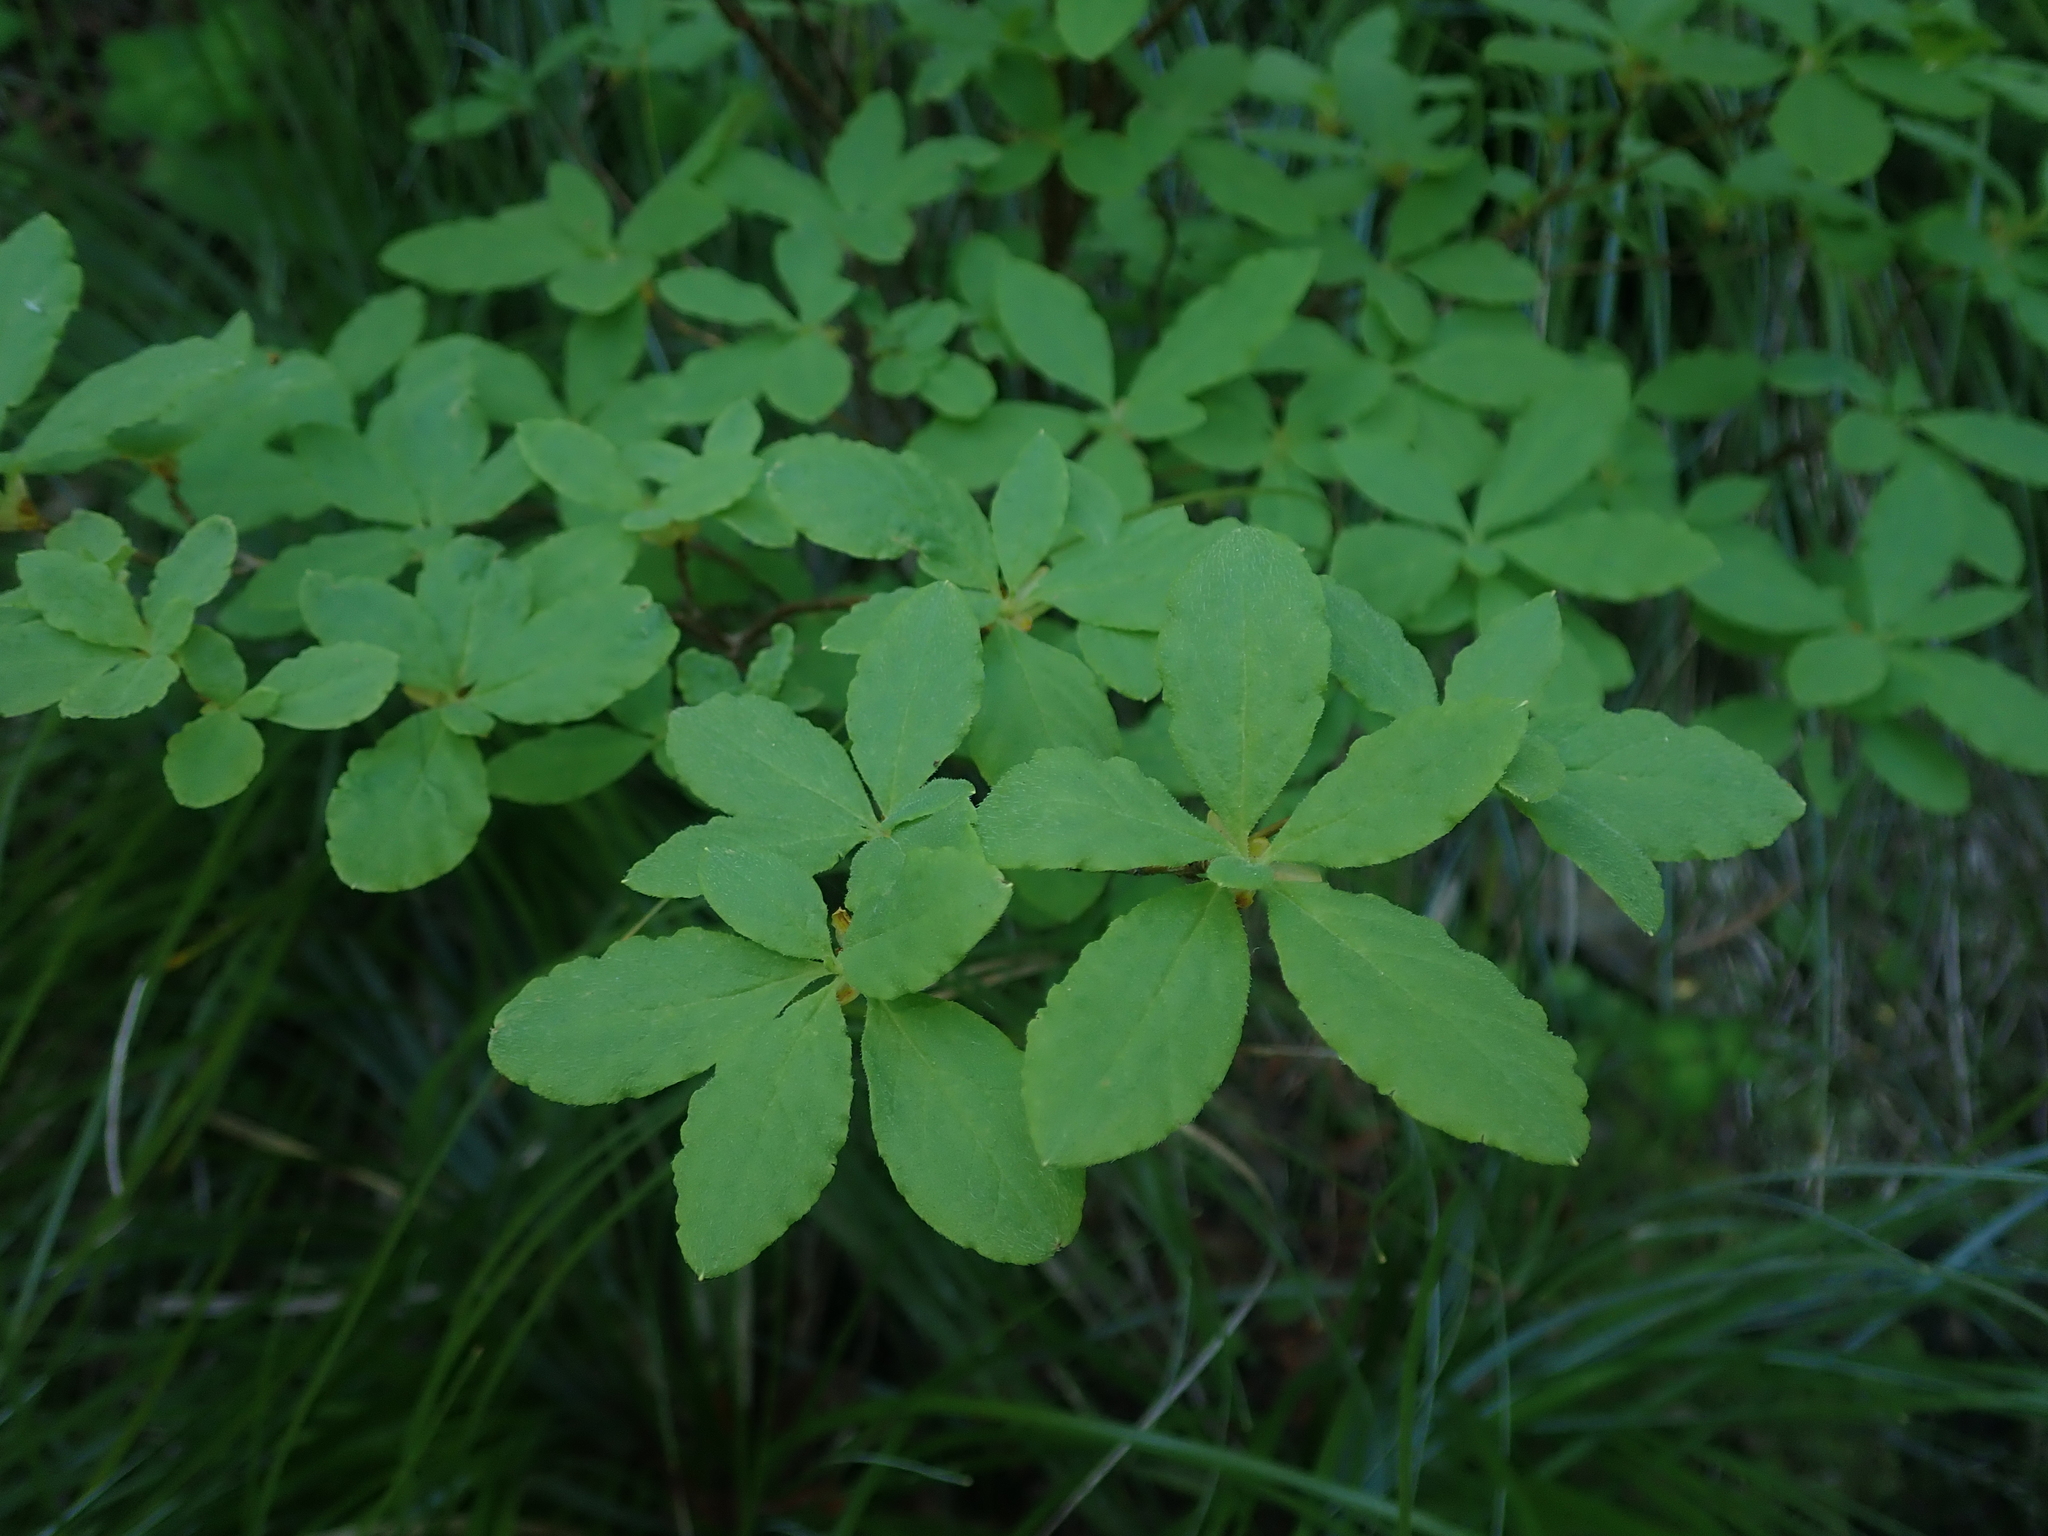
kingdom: Plantae
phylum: Tracheophyta
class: Magnoliopsida
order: Ericales
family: Ericaceae
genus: Rhododendron
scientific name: Rhododendron menziesii
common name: Pacific menziesia
